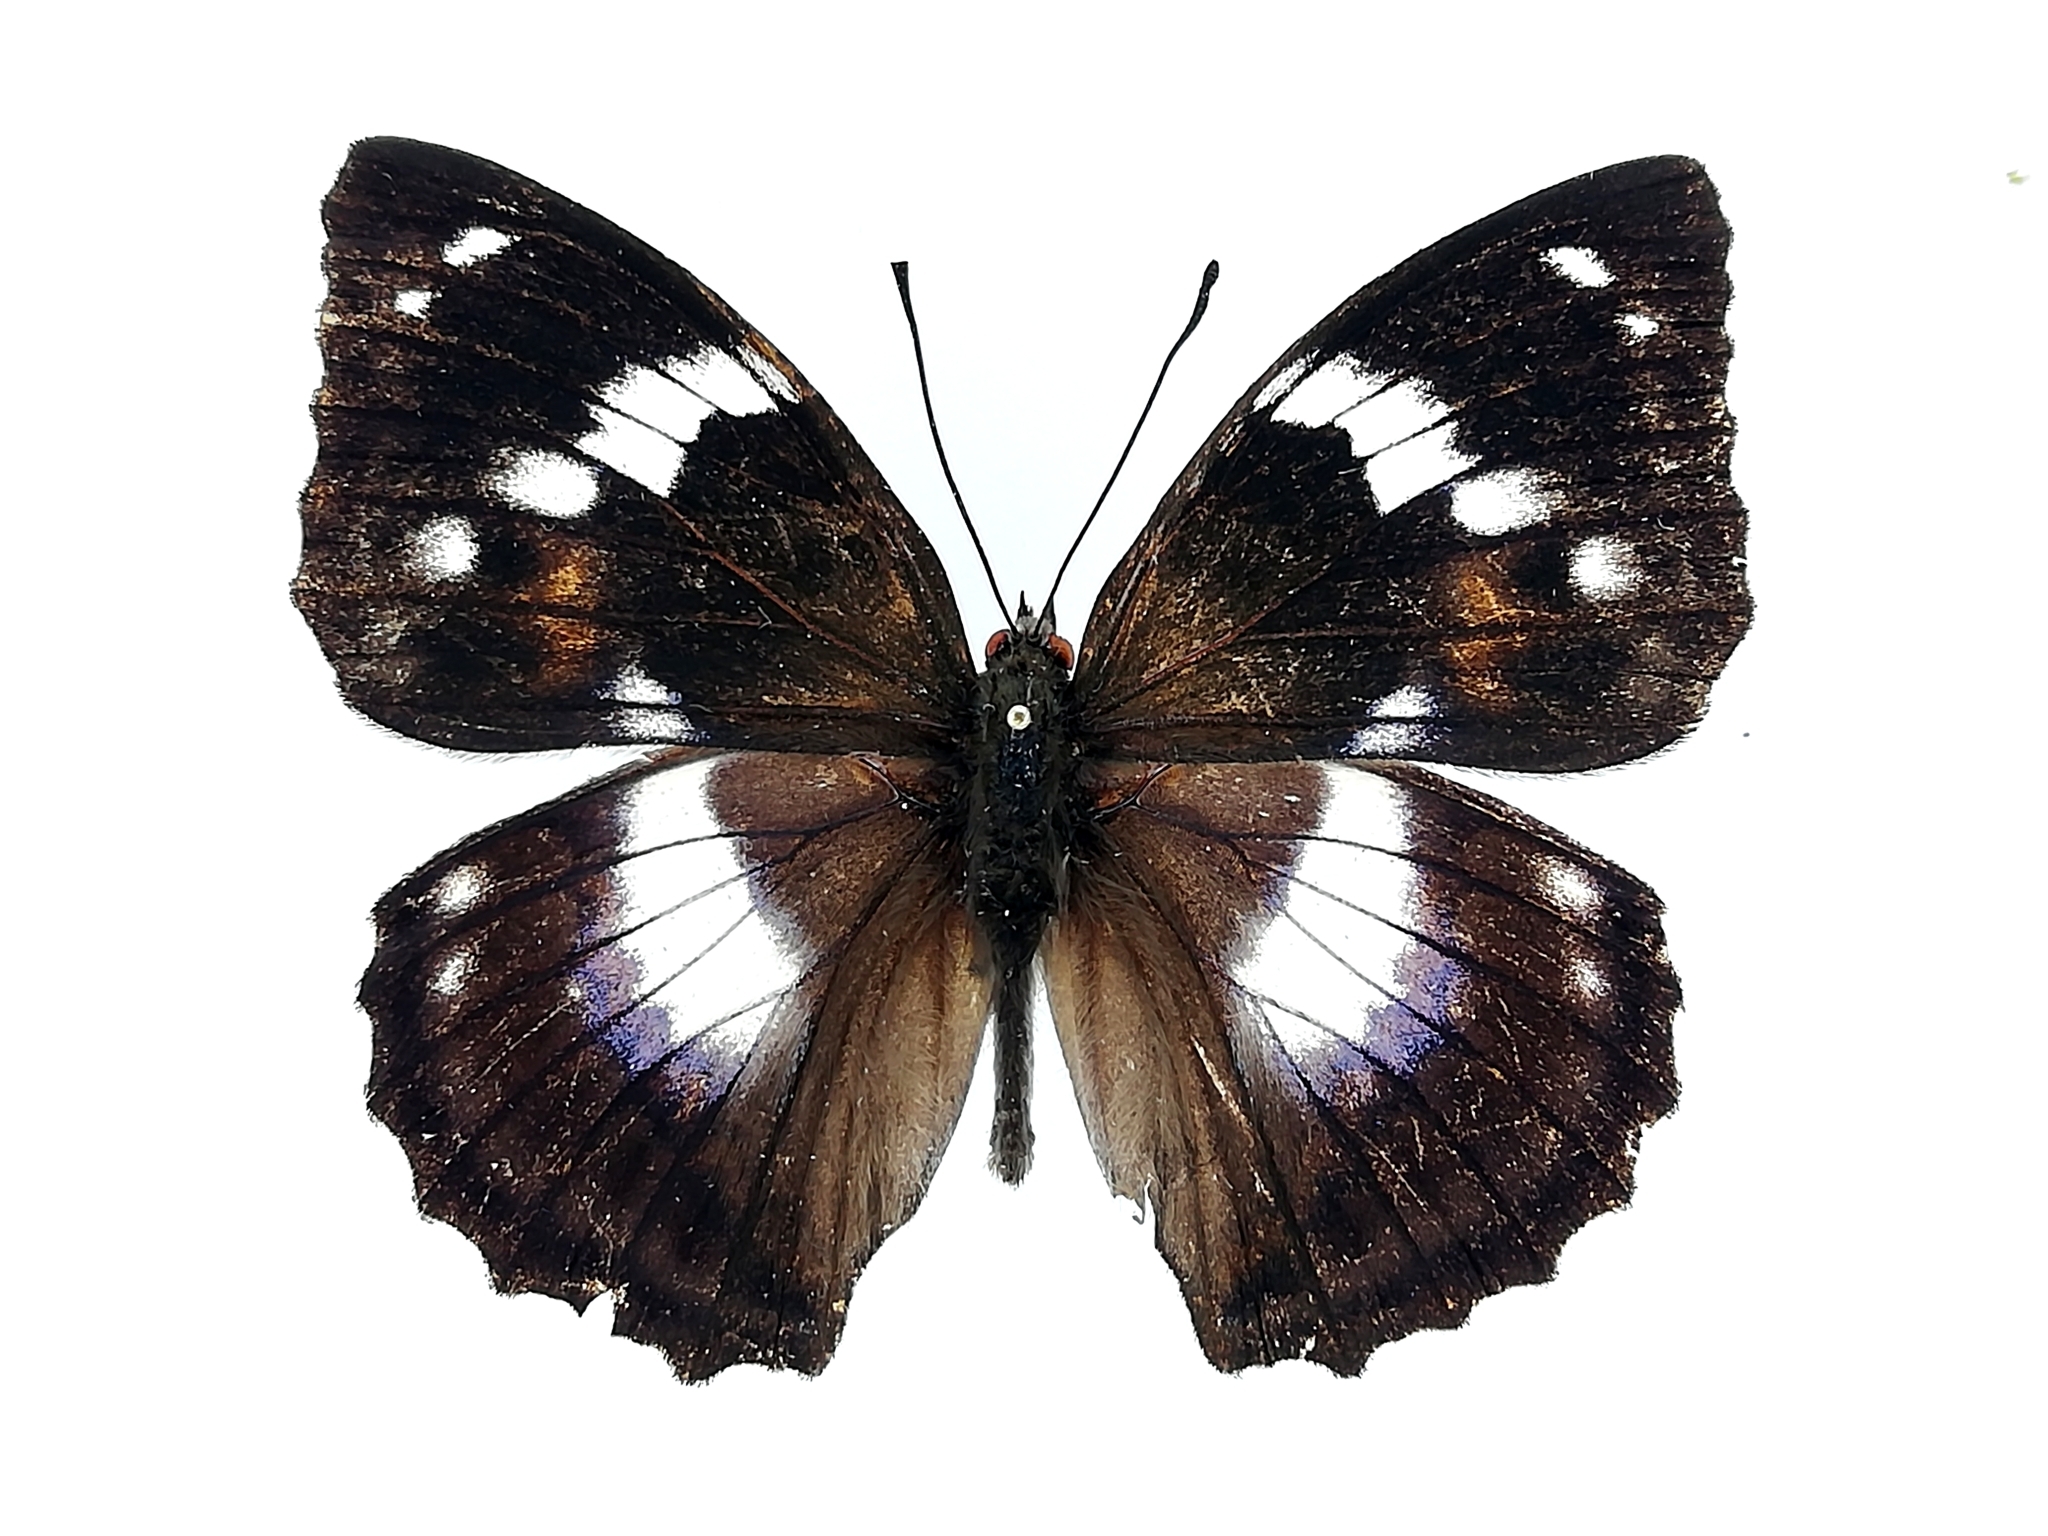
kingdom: Animalia
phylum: Arthropoda
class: Insecta
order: Lepidoptera
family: Nymphalidae
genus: Apatura
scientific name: Apatura Mimathyma schrencki
